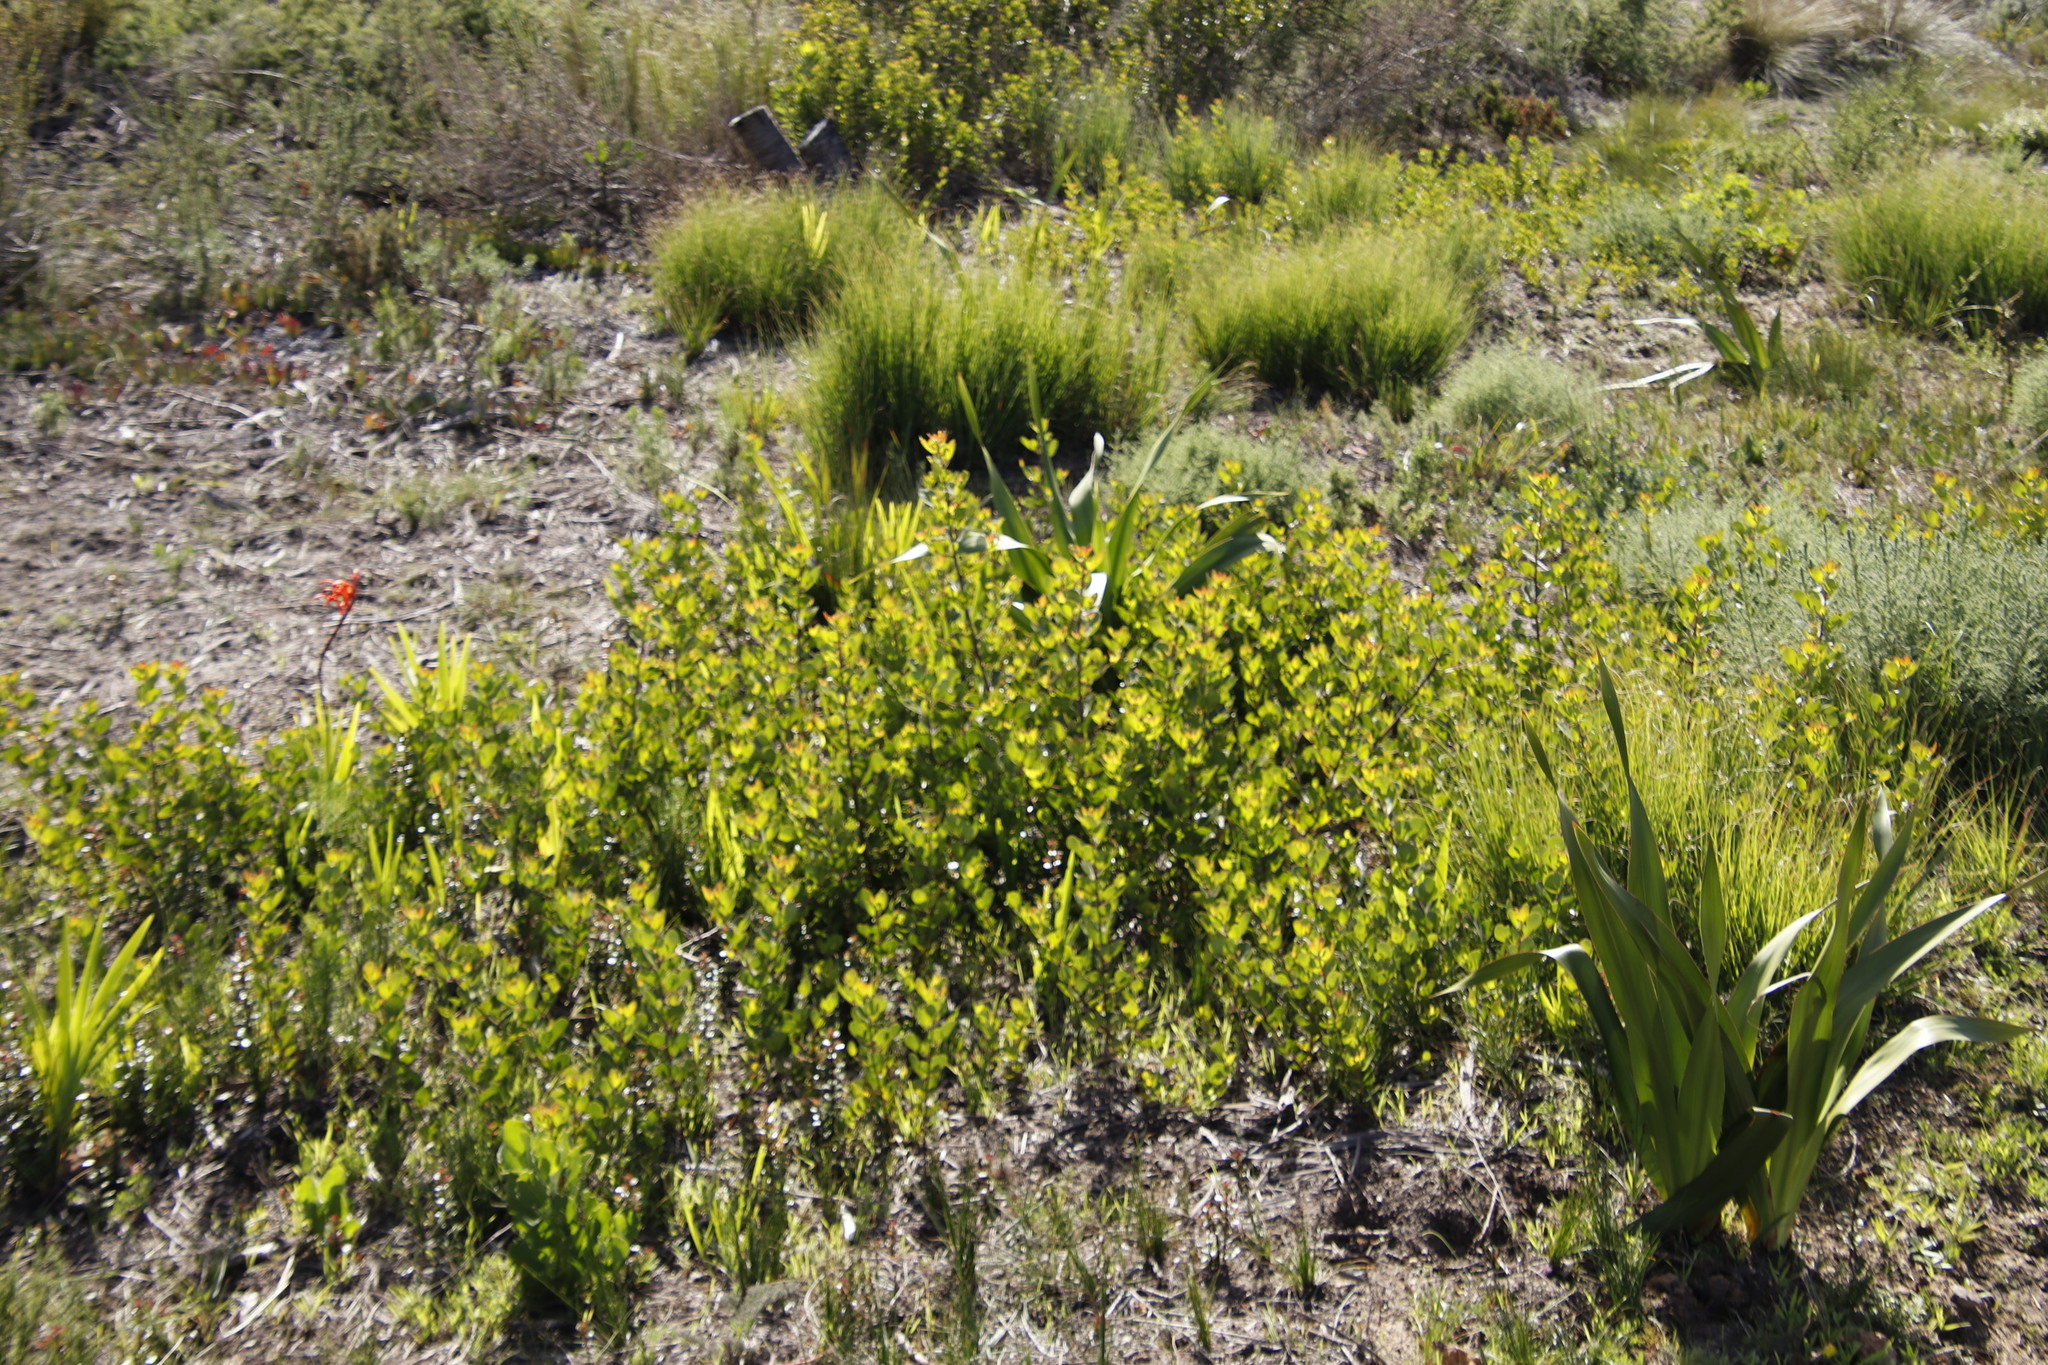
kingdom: Plantae
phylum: Tracheophyta
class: Magnoliopsida
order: Sapindales
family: Anacardiaceae
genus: Searsia
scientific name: Searsia lucida
